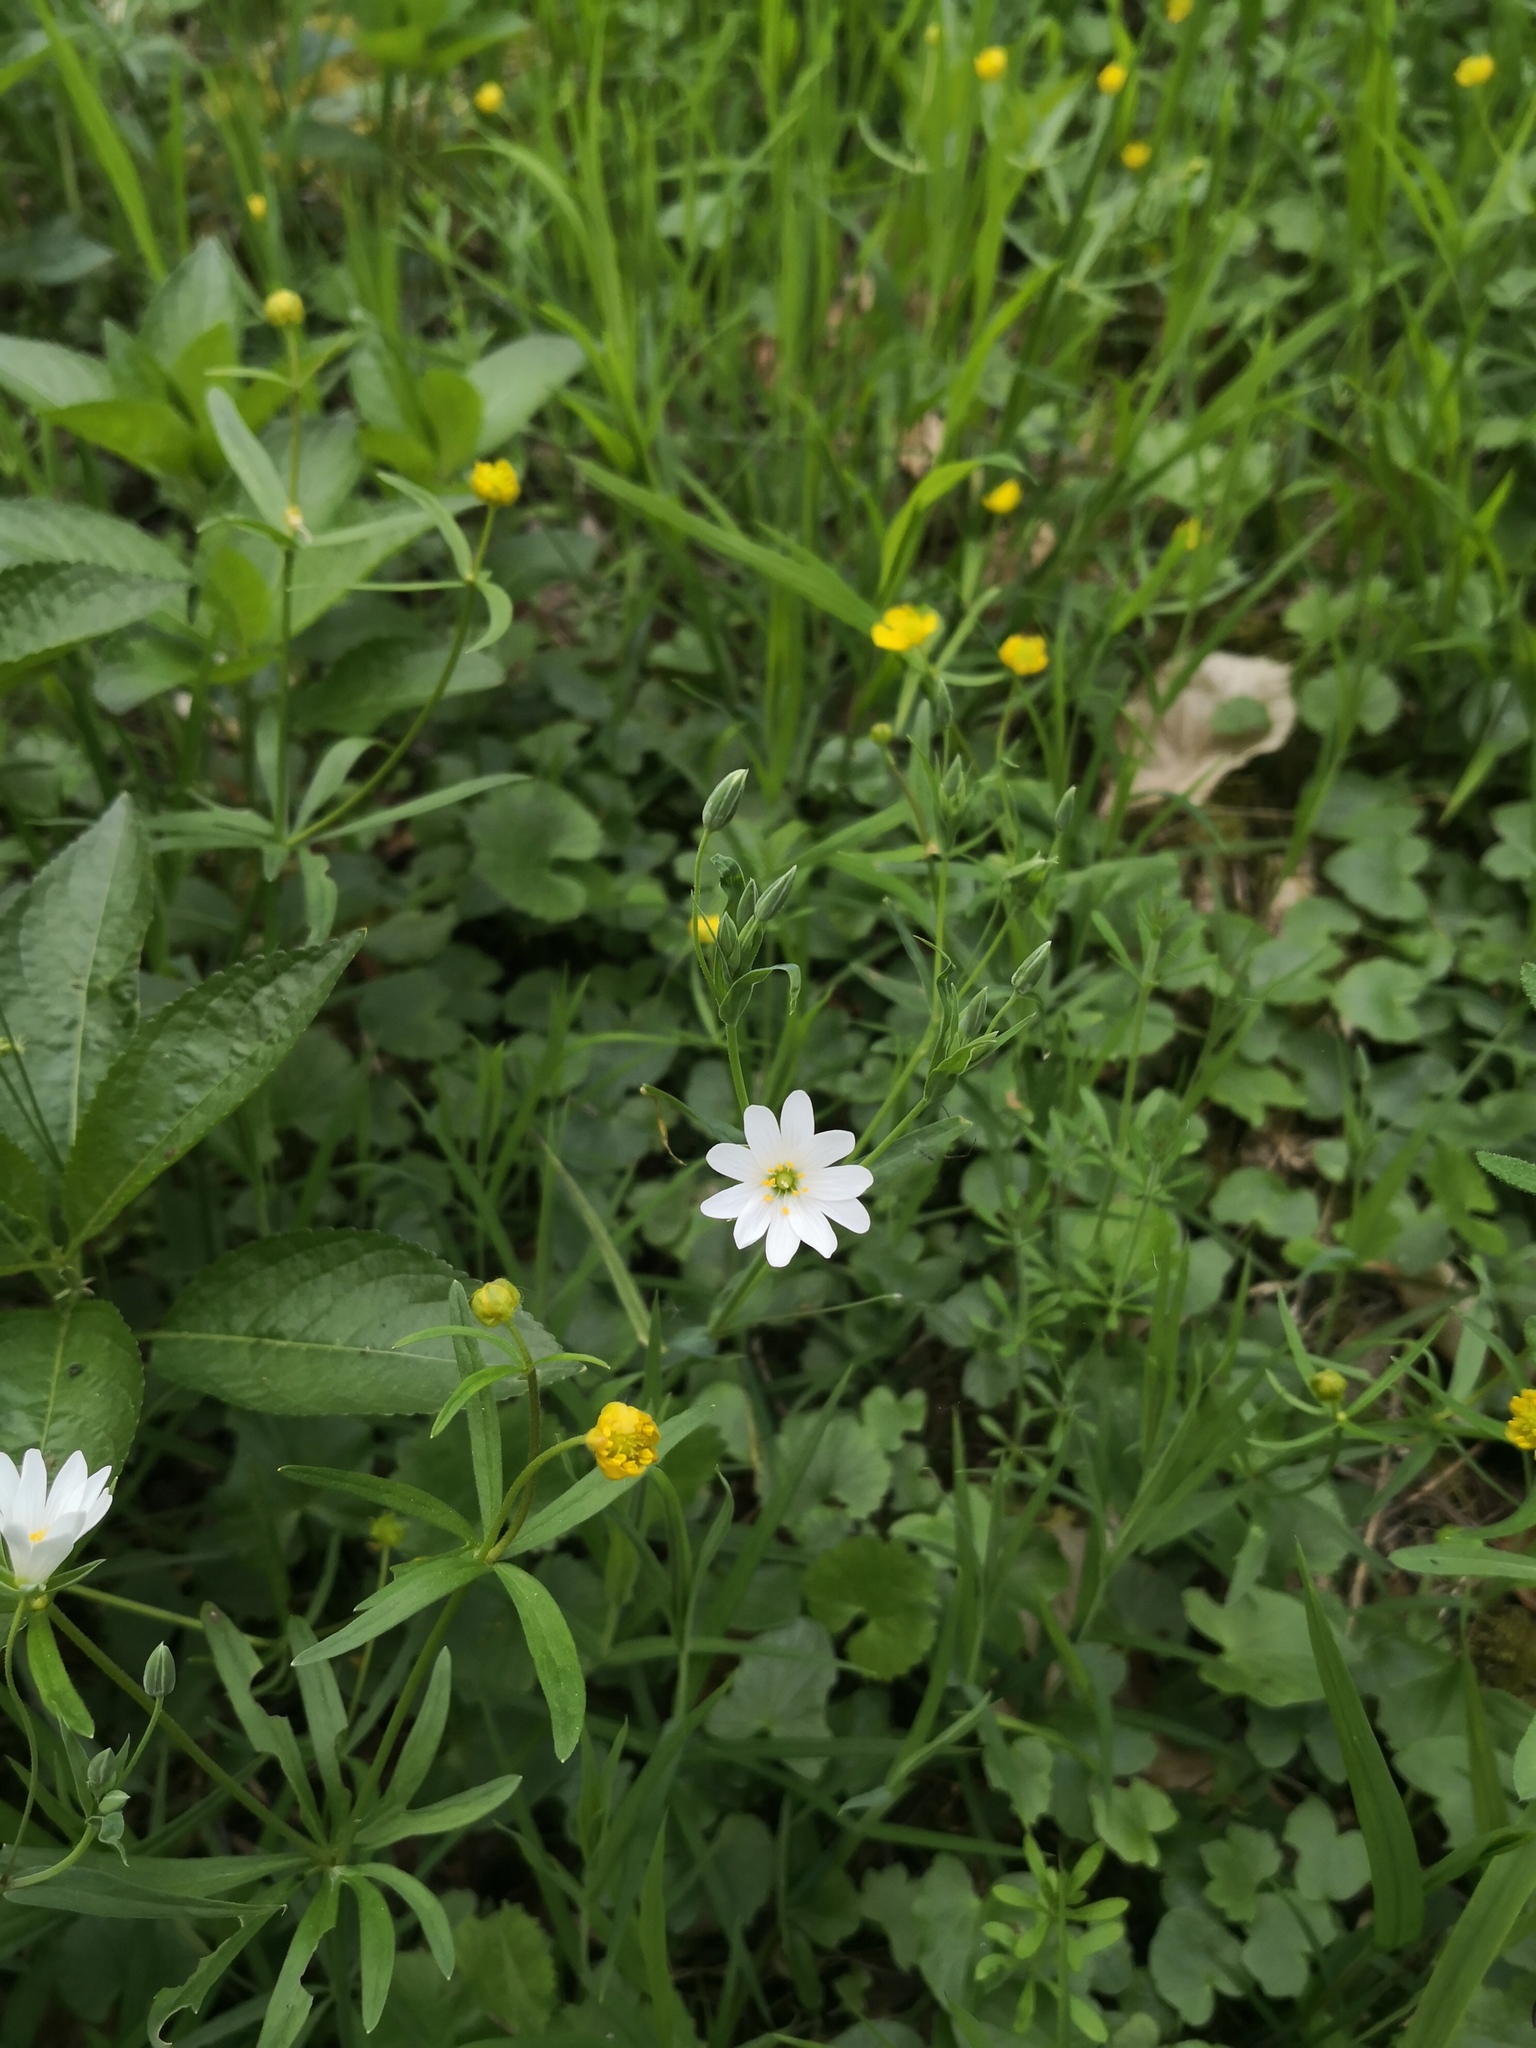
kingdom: Plantae
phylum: Tracheophyta
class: Magnoliopsida
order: Caryophyllales
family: Caryophyllaceae
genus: Rabelera
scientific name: Rabelera holostea
